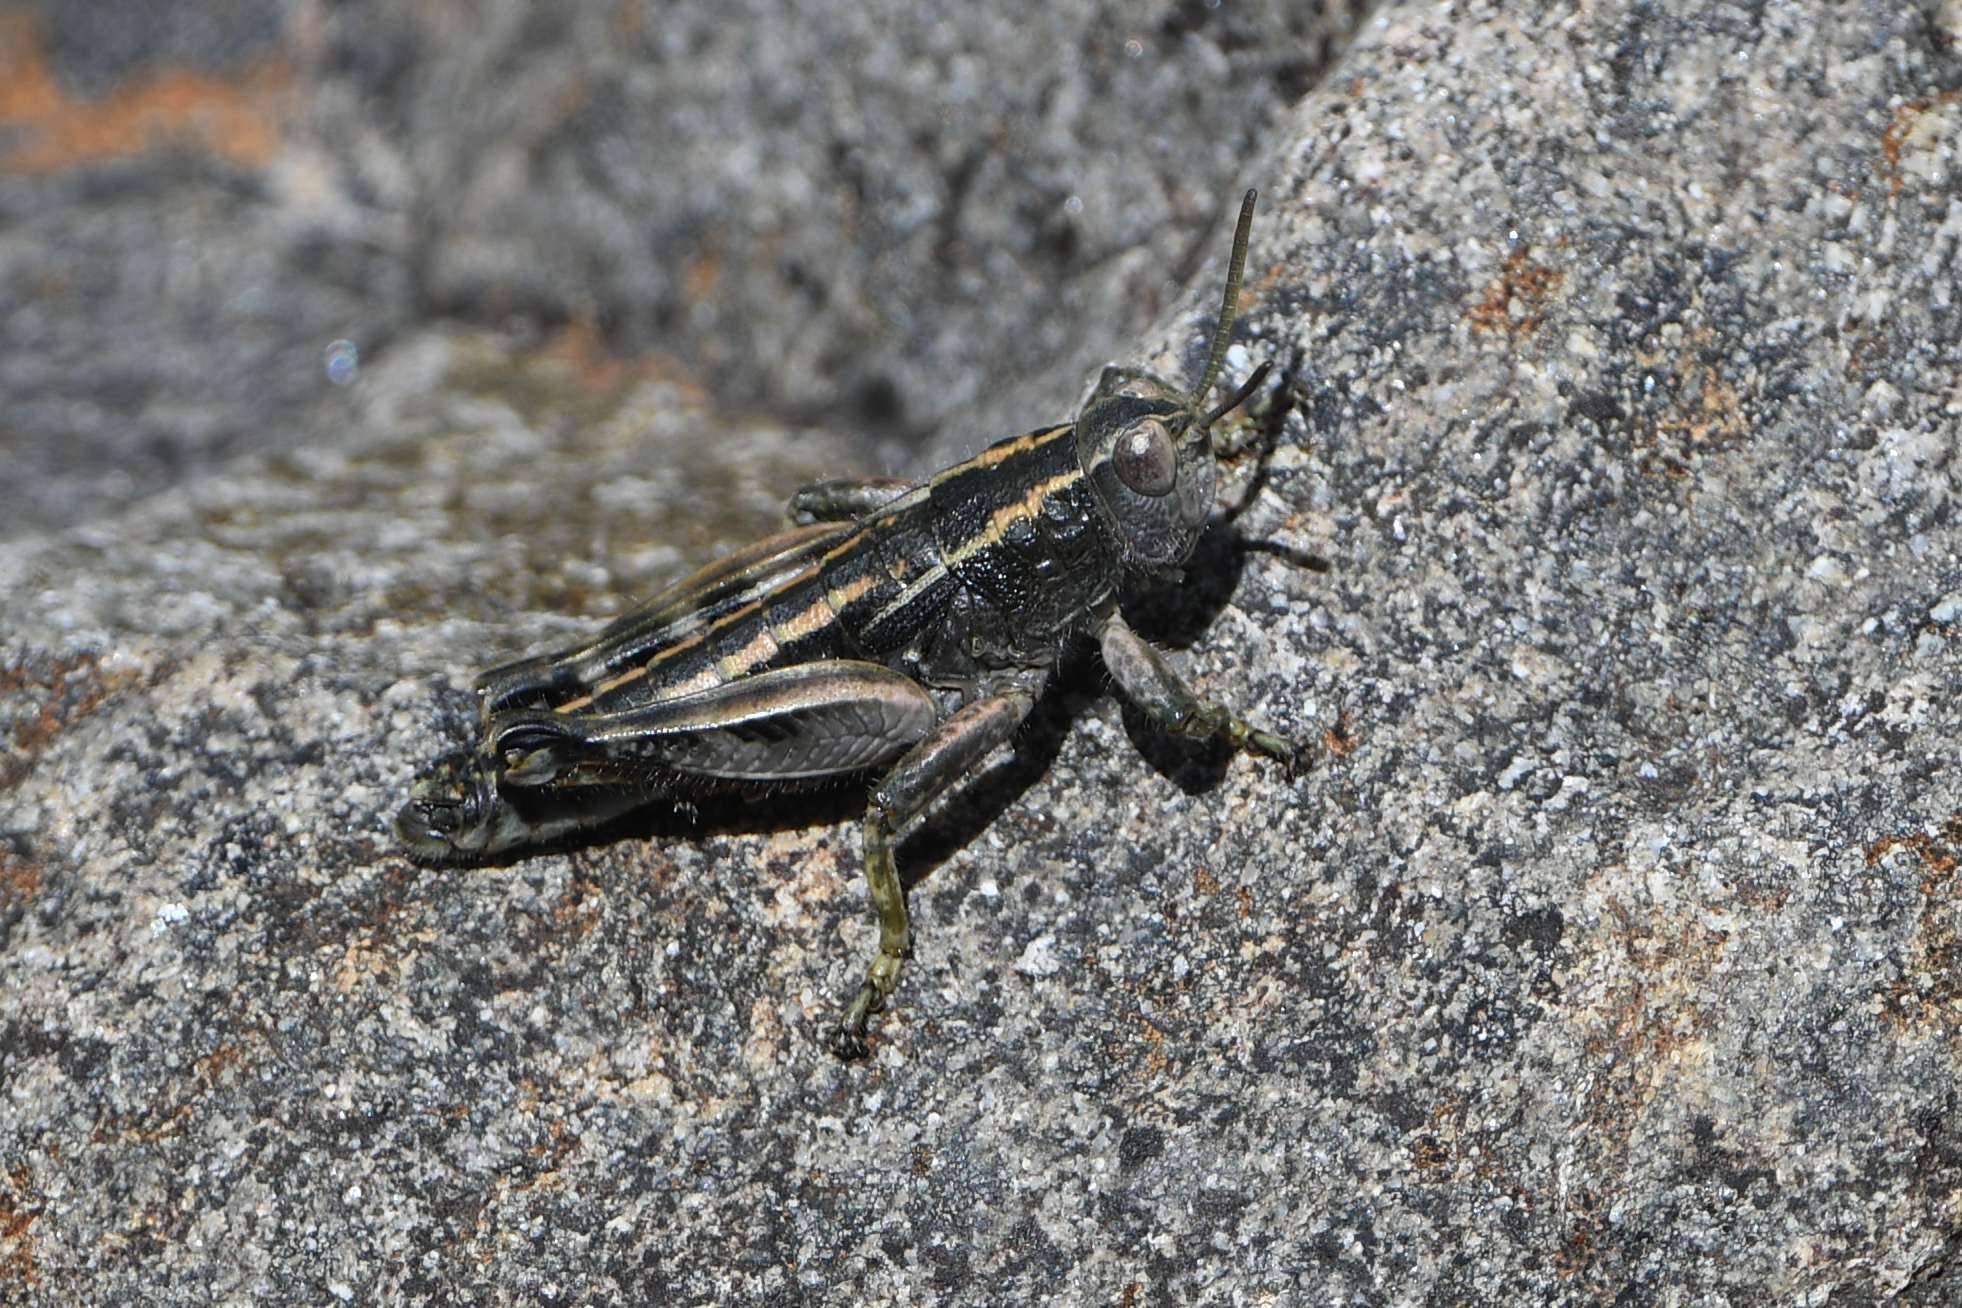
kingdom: Animalia
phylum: Arthropoda
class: Insecta
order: Orthoptera
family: Acrididae
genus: Sigaus
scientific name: Sigaus
